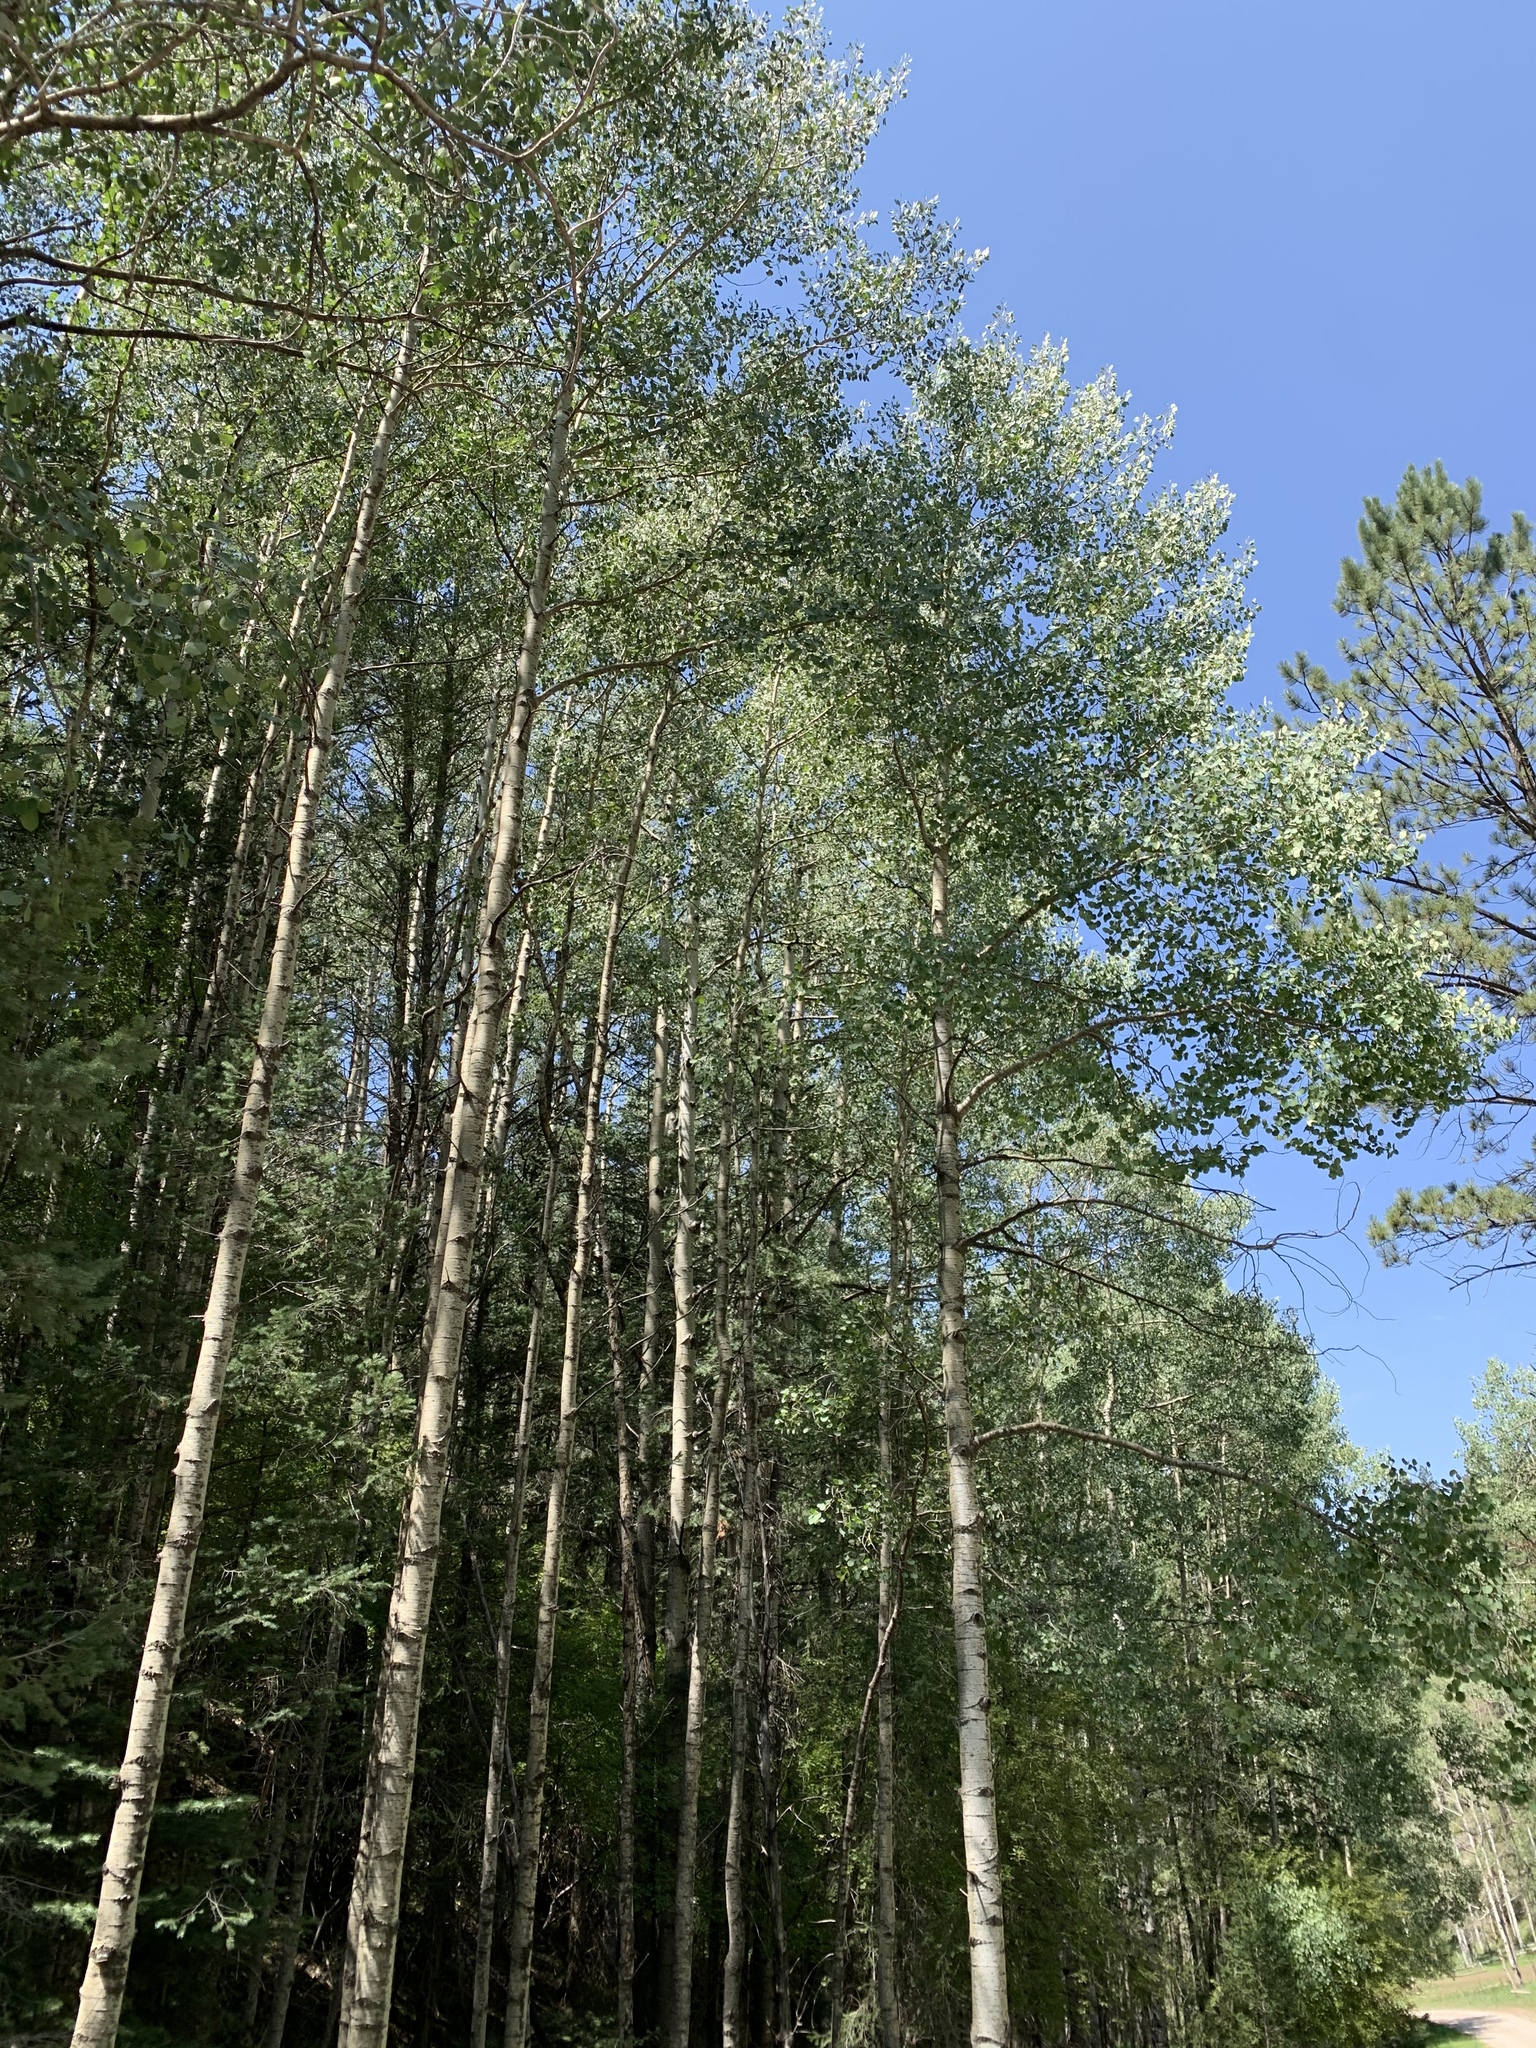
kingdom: Plantae
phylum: Tracheophyta
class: Magnoliopsida
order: Malpighiales
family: Salicaceae
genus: Populus
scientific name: Populus tremuloides
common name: Quaking aspen
